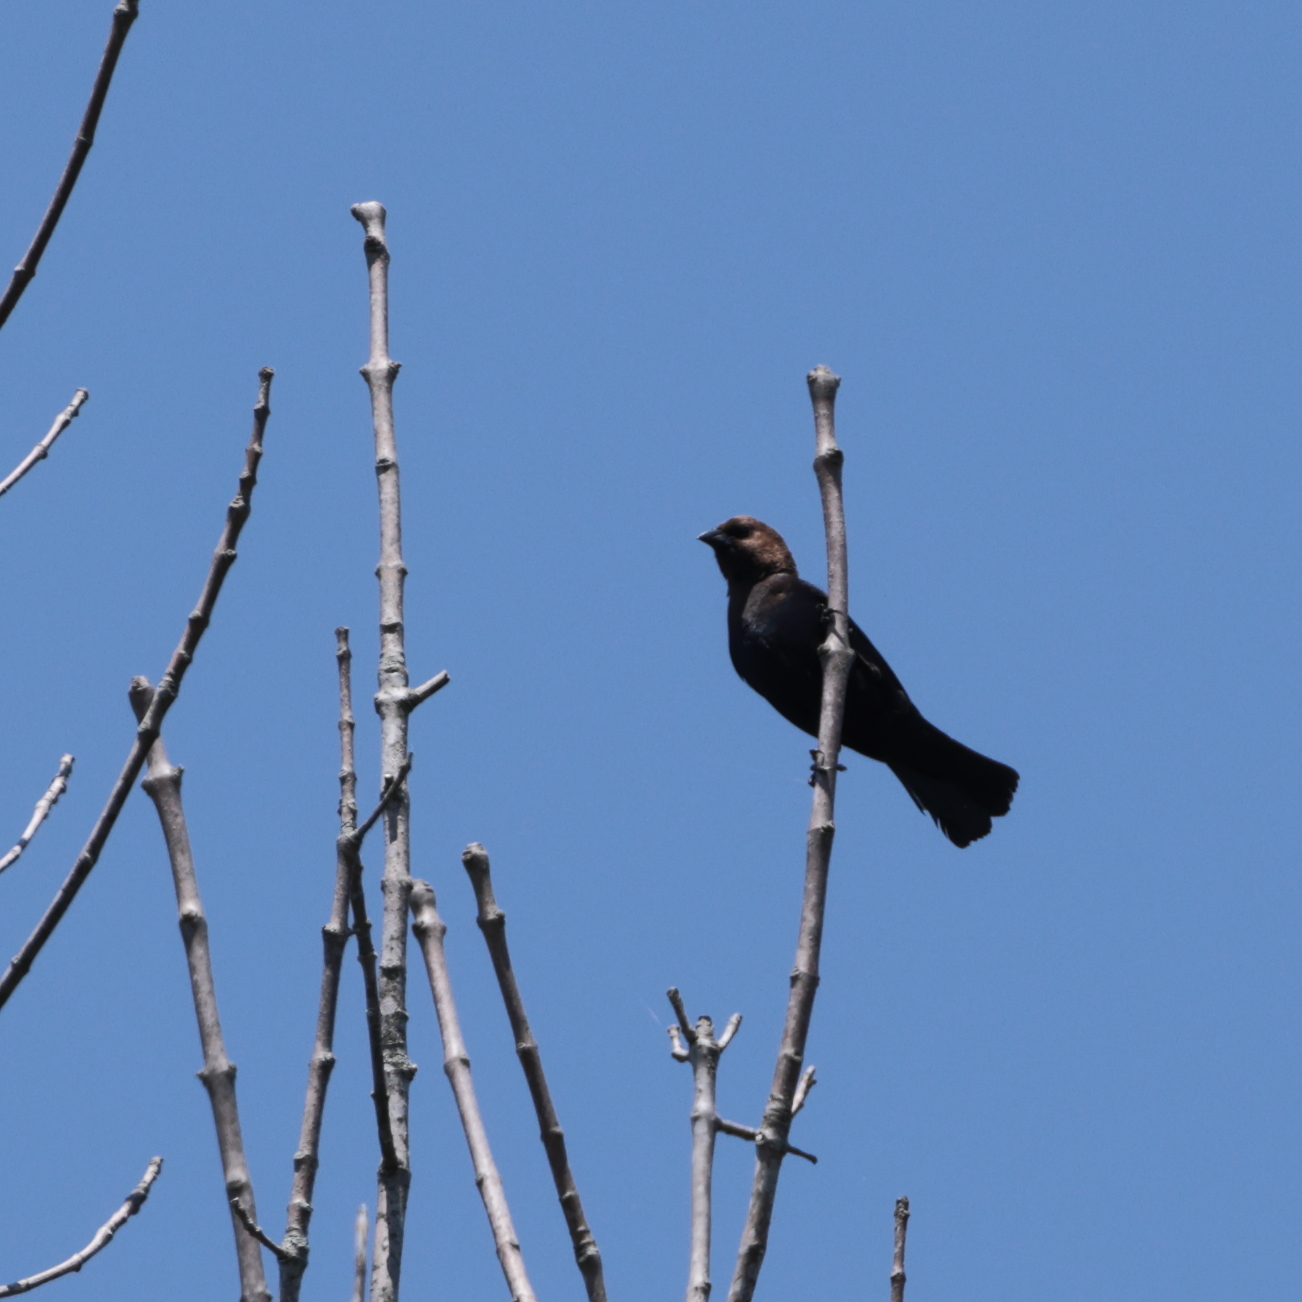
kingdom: Animalia
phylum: Chordata
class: Aves
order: Passeriformes
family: Icteridae
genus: Molothrus
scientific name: Molothrus ater
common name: Brown-headed cowbird
